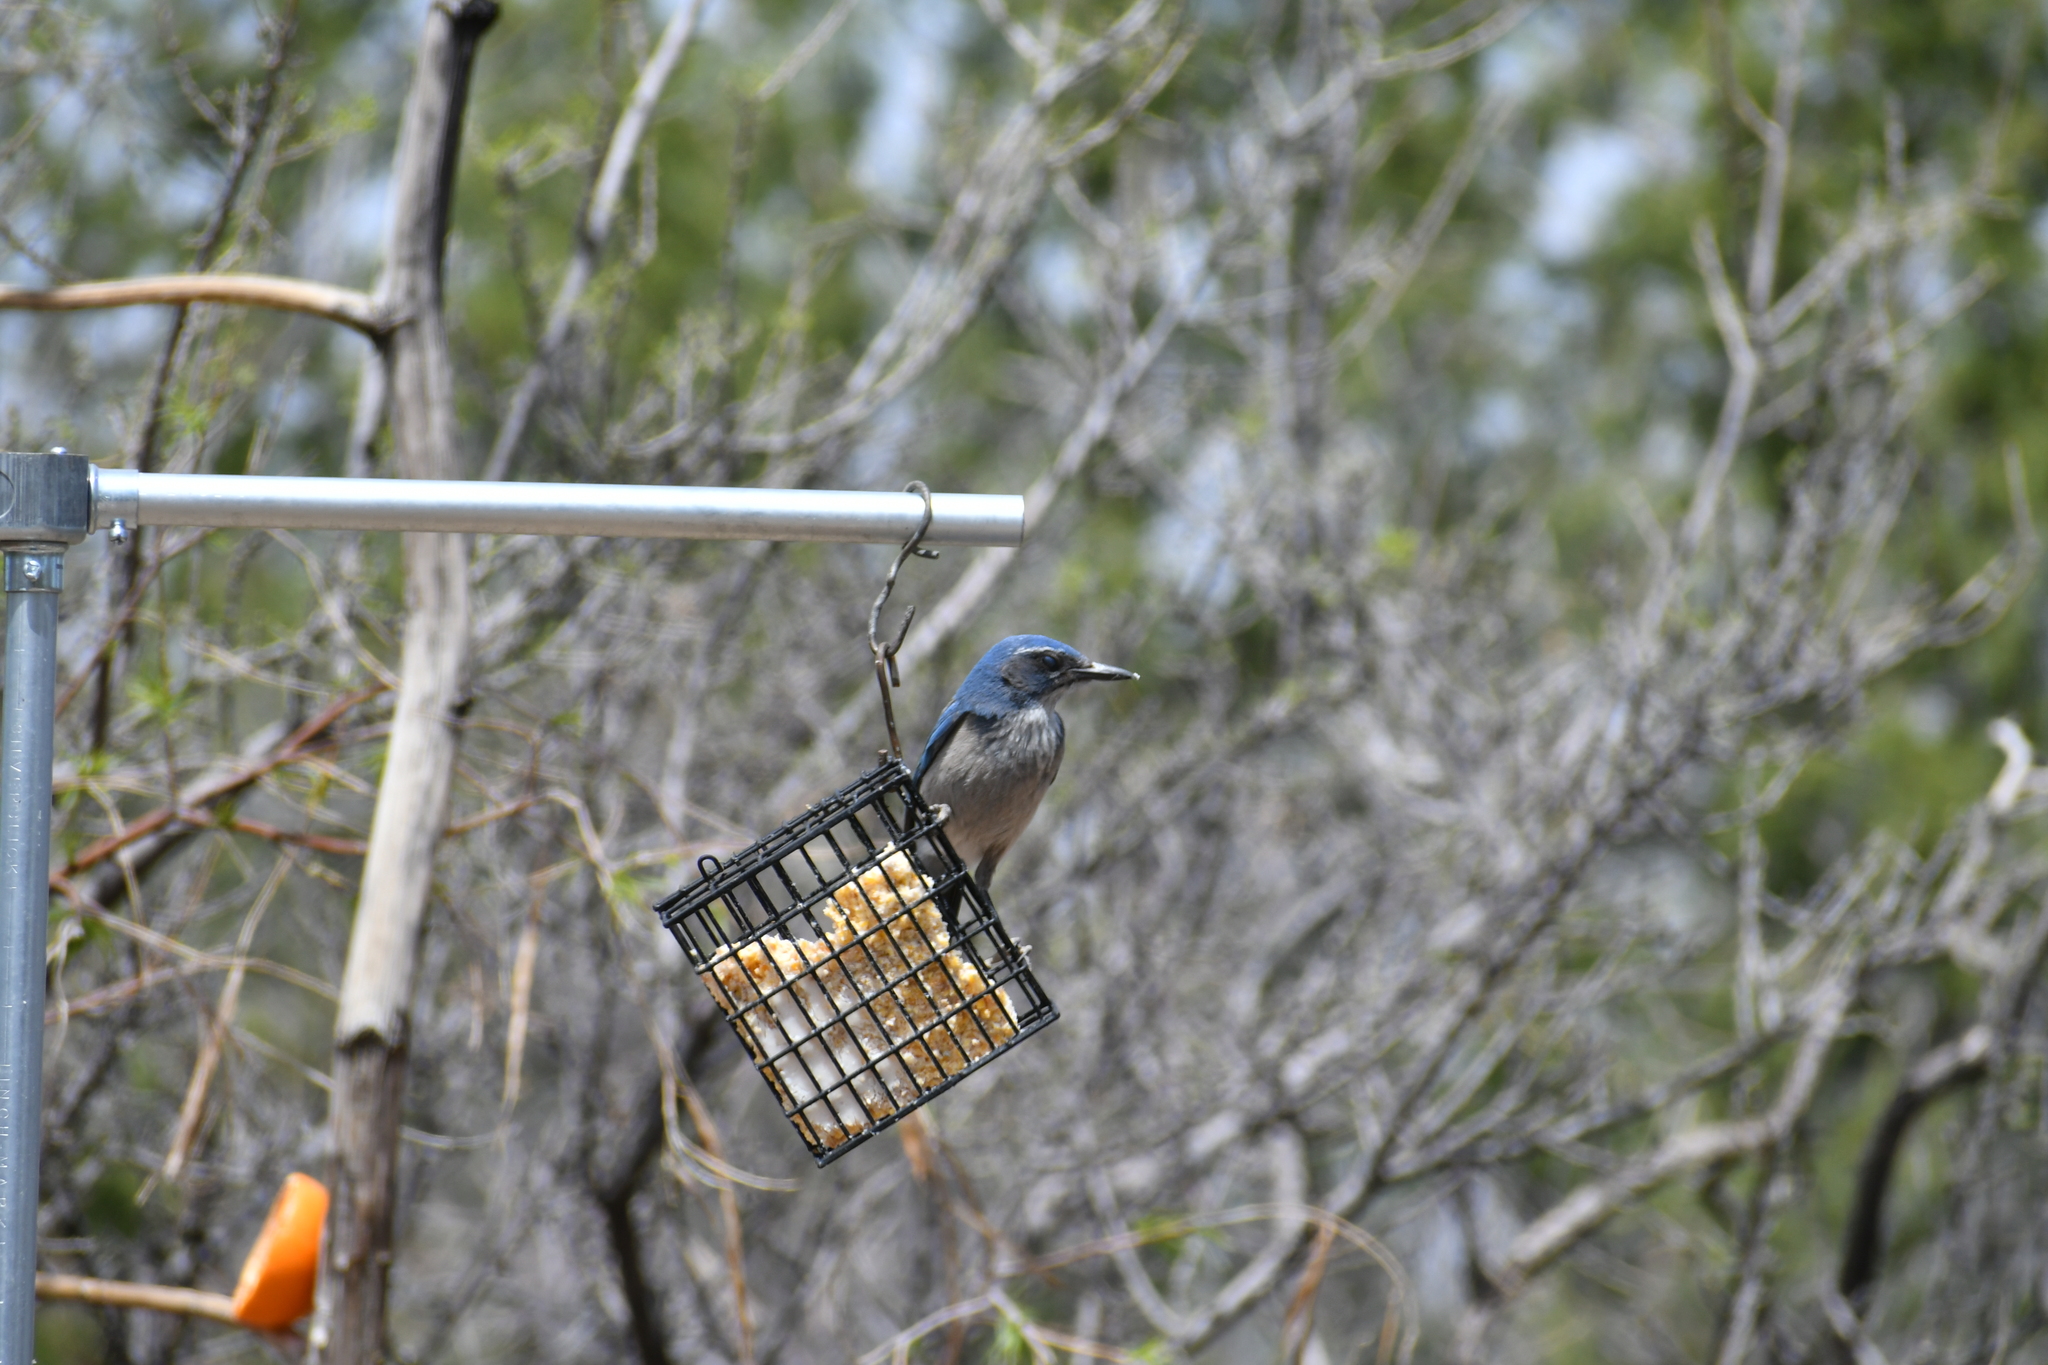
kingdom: Animalia
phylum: Chordata
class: Aves
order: Passeriformes
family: Corvidae
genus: Aphelocoma
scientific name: Aphelocoma woodhouseii
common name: Woodhouse's scrub-jay
